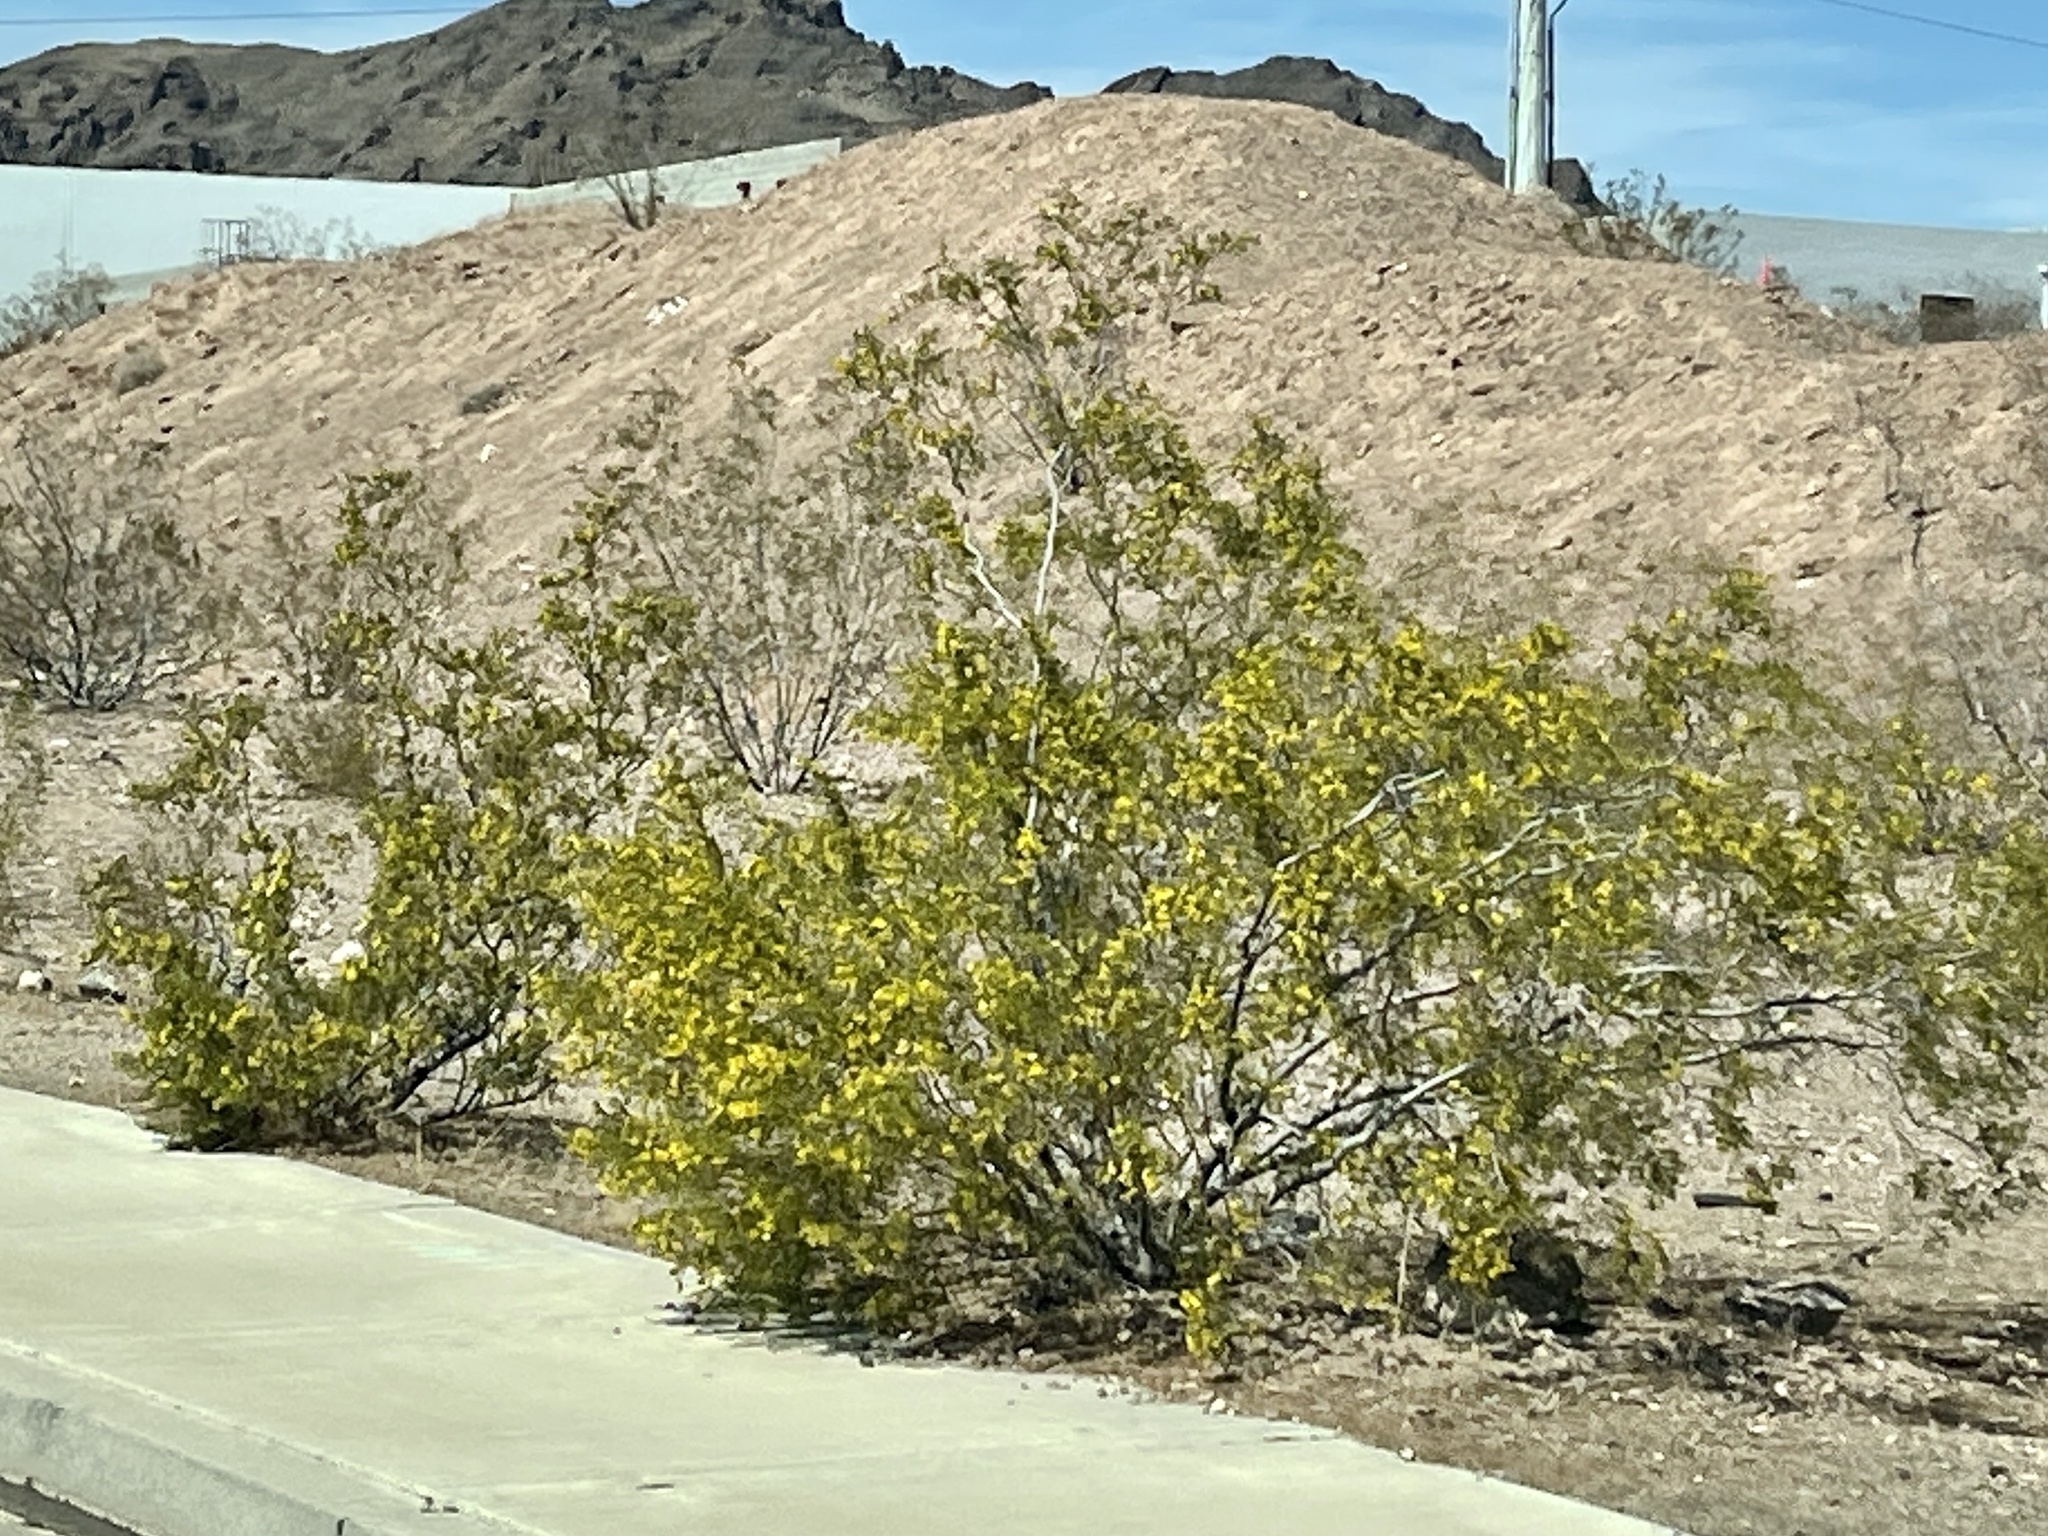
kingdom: Plantae
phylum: Tracheophyta
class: Magnoliopsida
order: Zygophyllales
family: Zygophyllaceae
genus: Larrea
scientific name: Larrea tridentata
